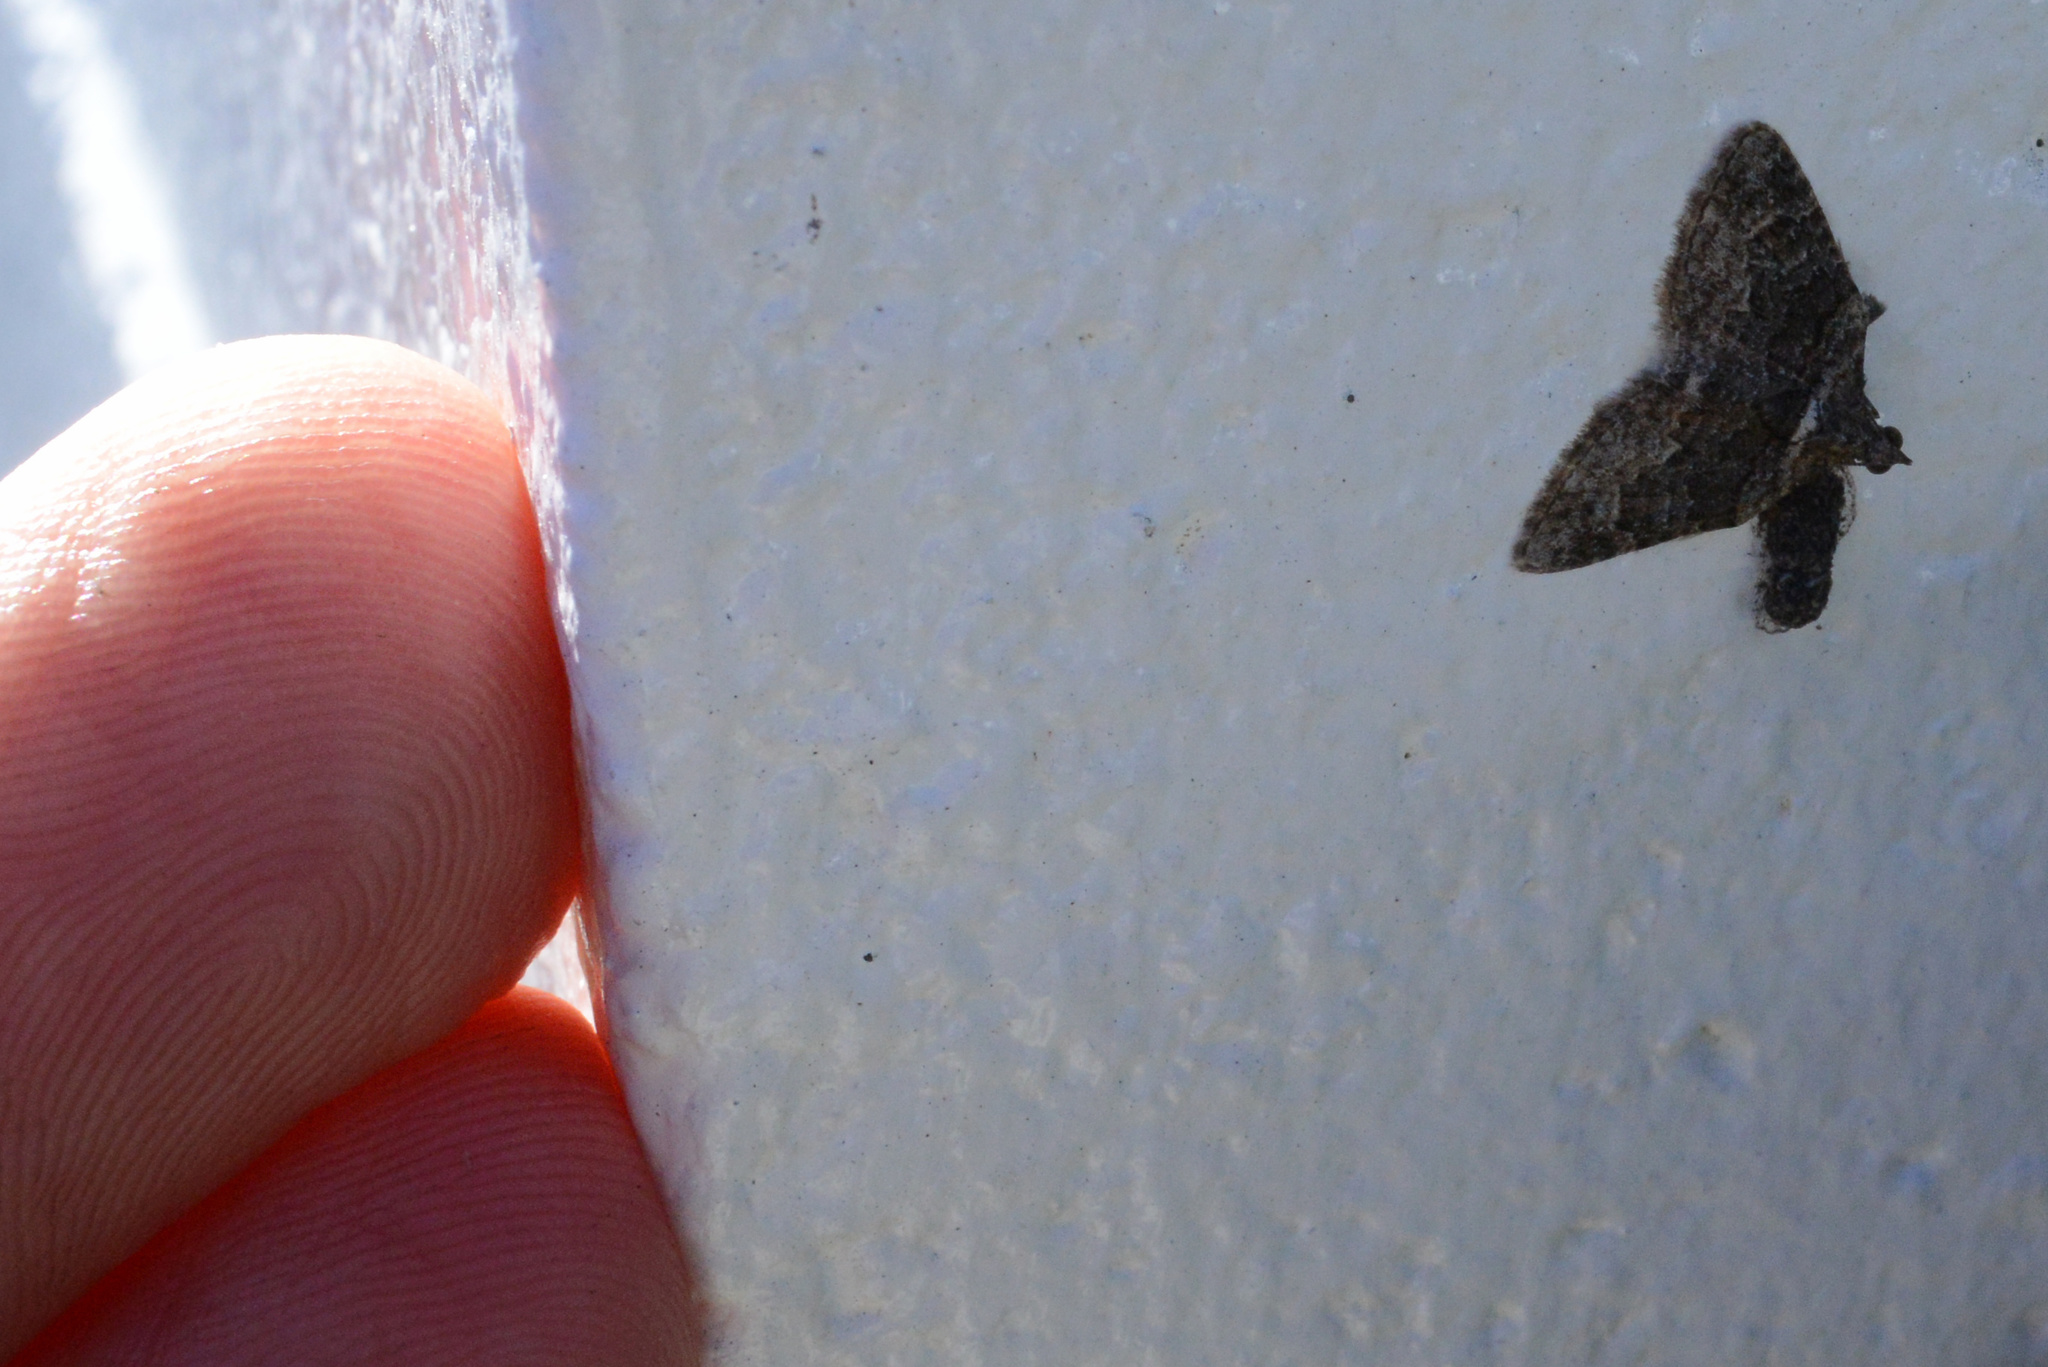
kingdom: Animalia
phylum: Arthropoda
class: Insecta
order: Lepidoptera
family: Geometridae
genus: Phrissogonus
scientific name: Phrissogonus laticostata
